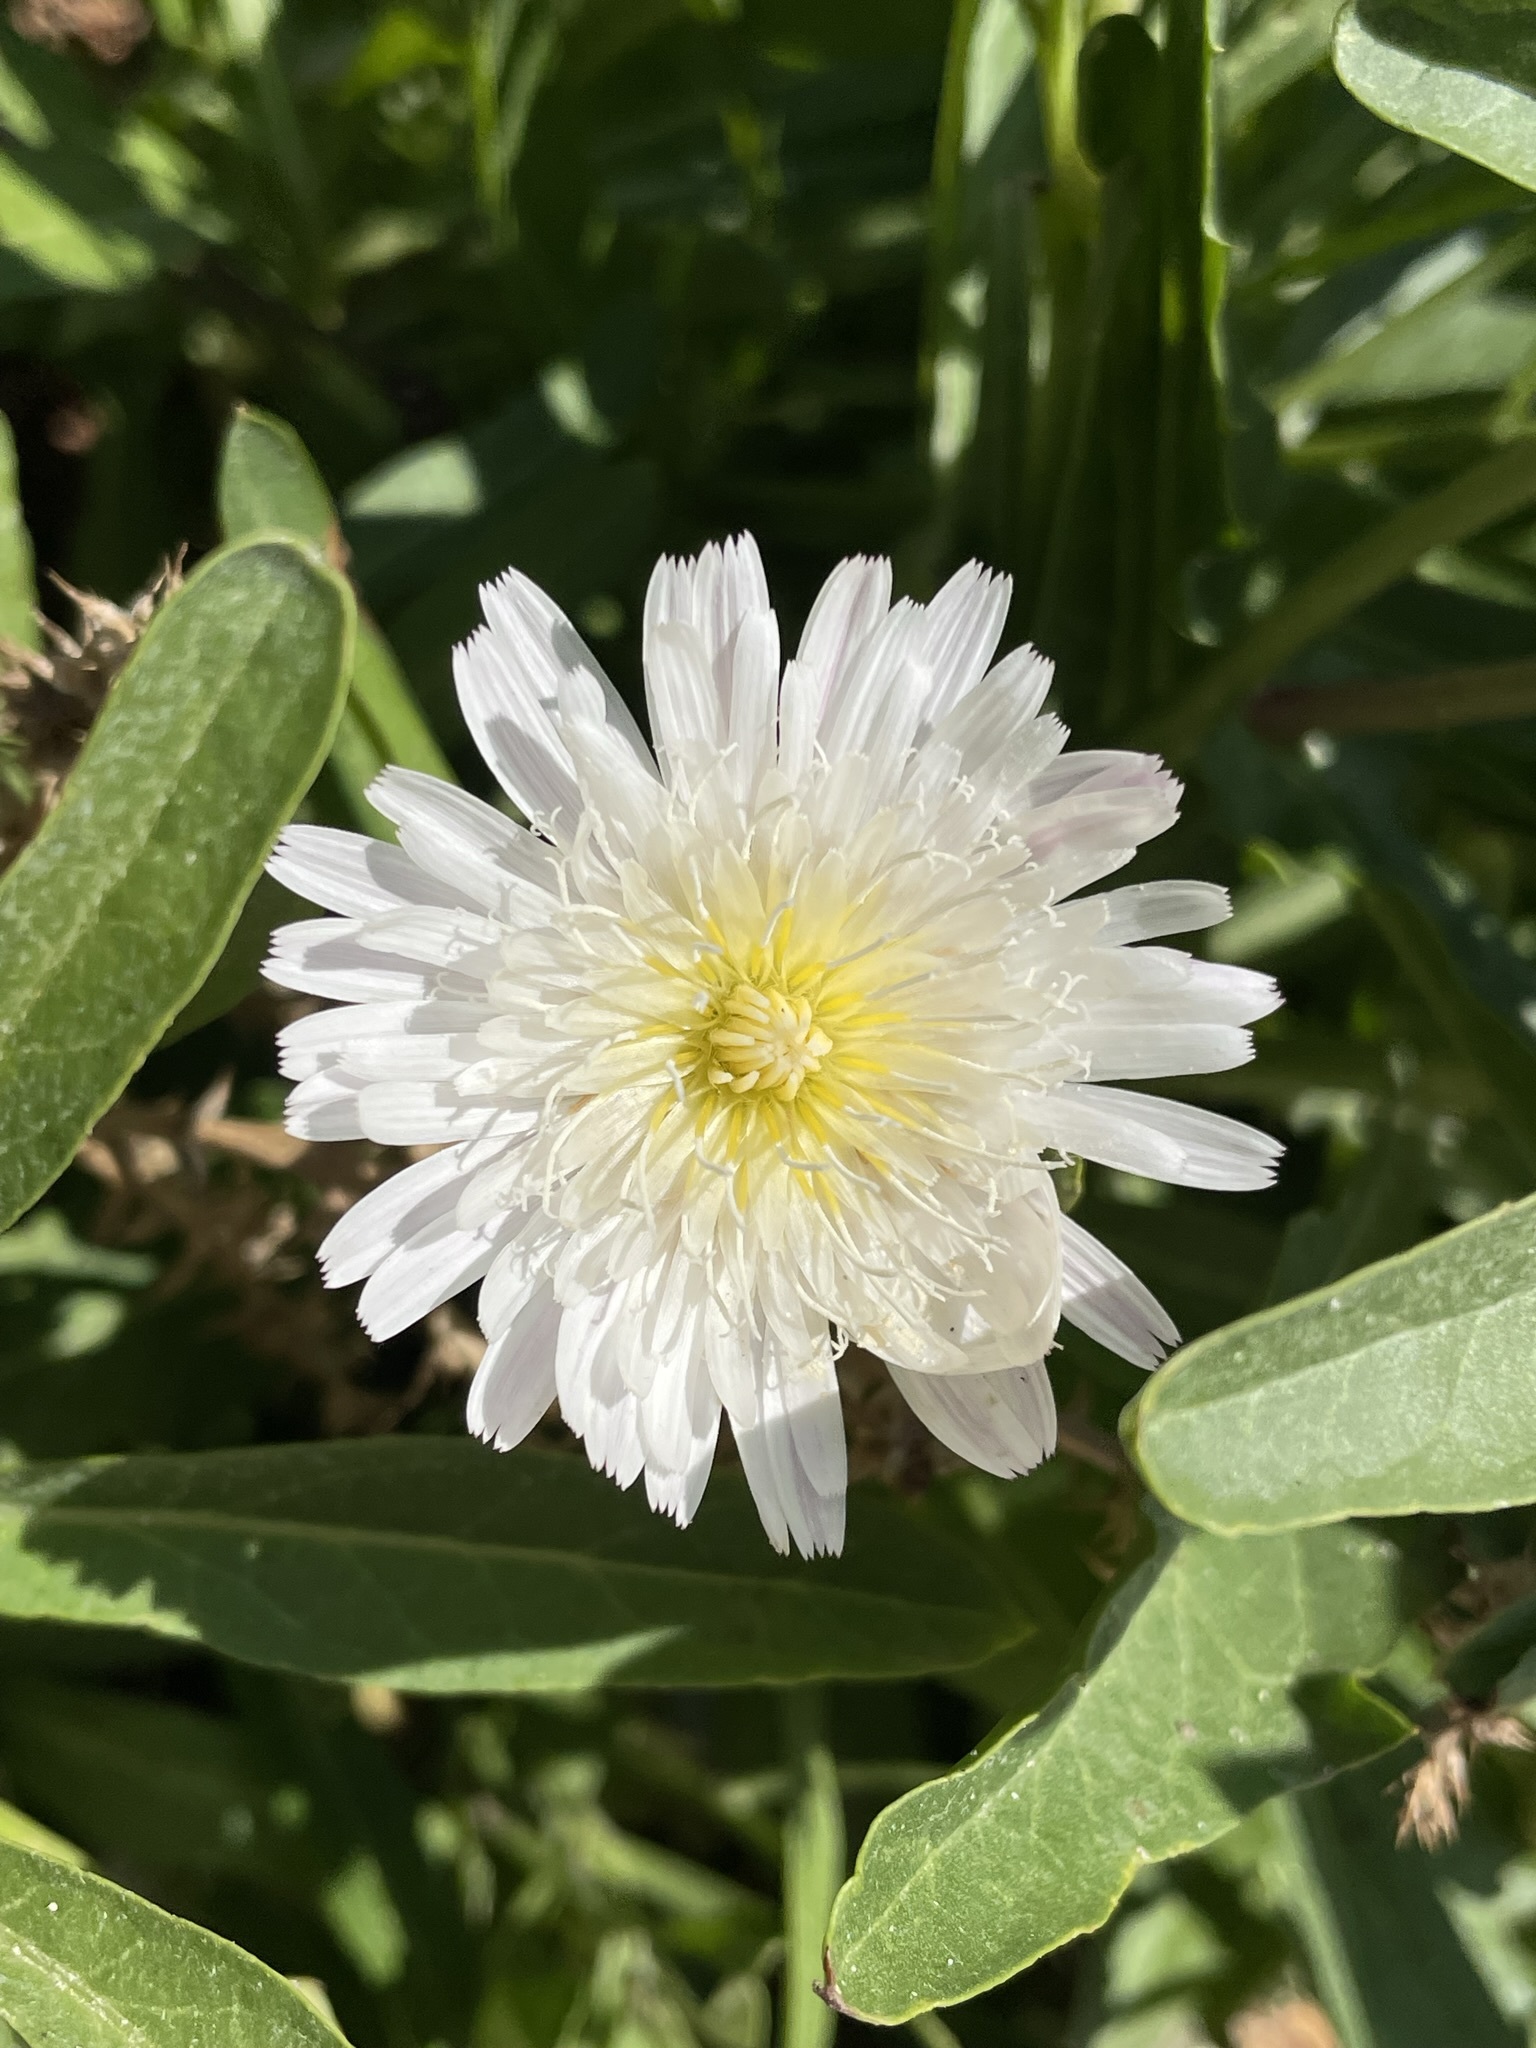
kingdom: Plantae
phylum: Tracheophyta
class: Magnoliopsida
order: Asterales
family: Asteraceae
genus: Malacothrix
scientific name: Malacothrix saxatilis
